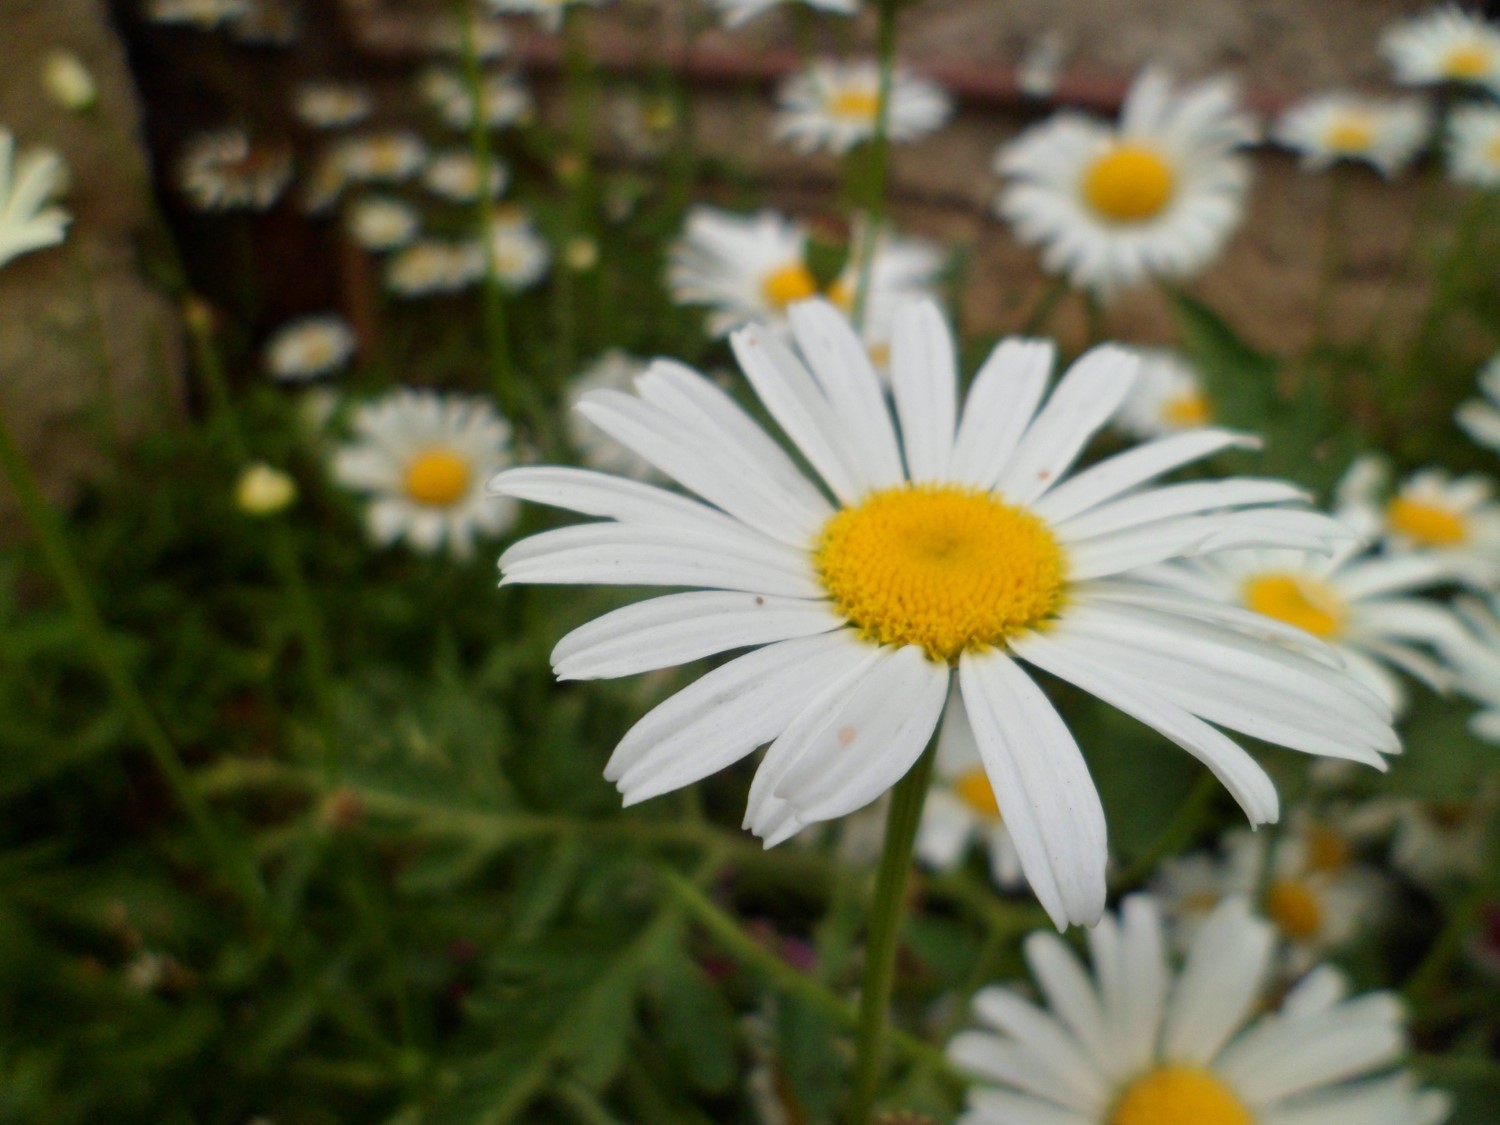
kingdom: Plantae
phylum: Tracheophyta
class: Magnoliopsida
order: Asterales
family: Asteraceae
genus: Leucanthemum
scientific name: Leucanthemum vulgare
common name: Oxeye daisy
